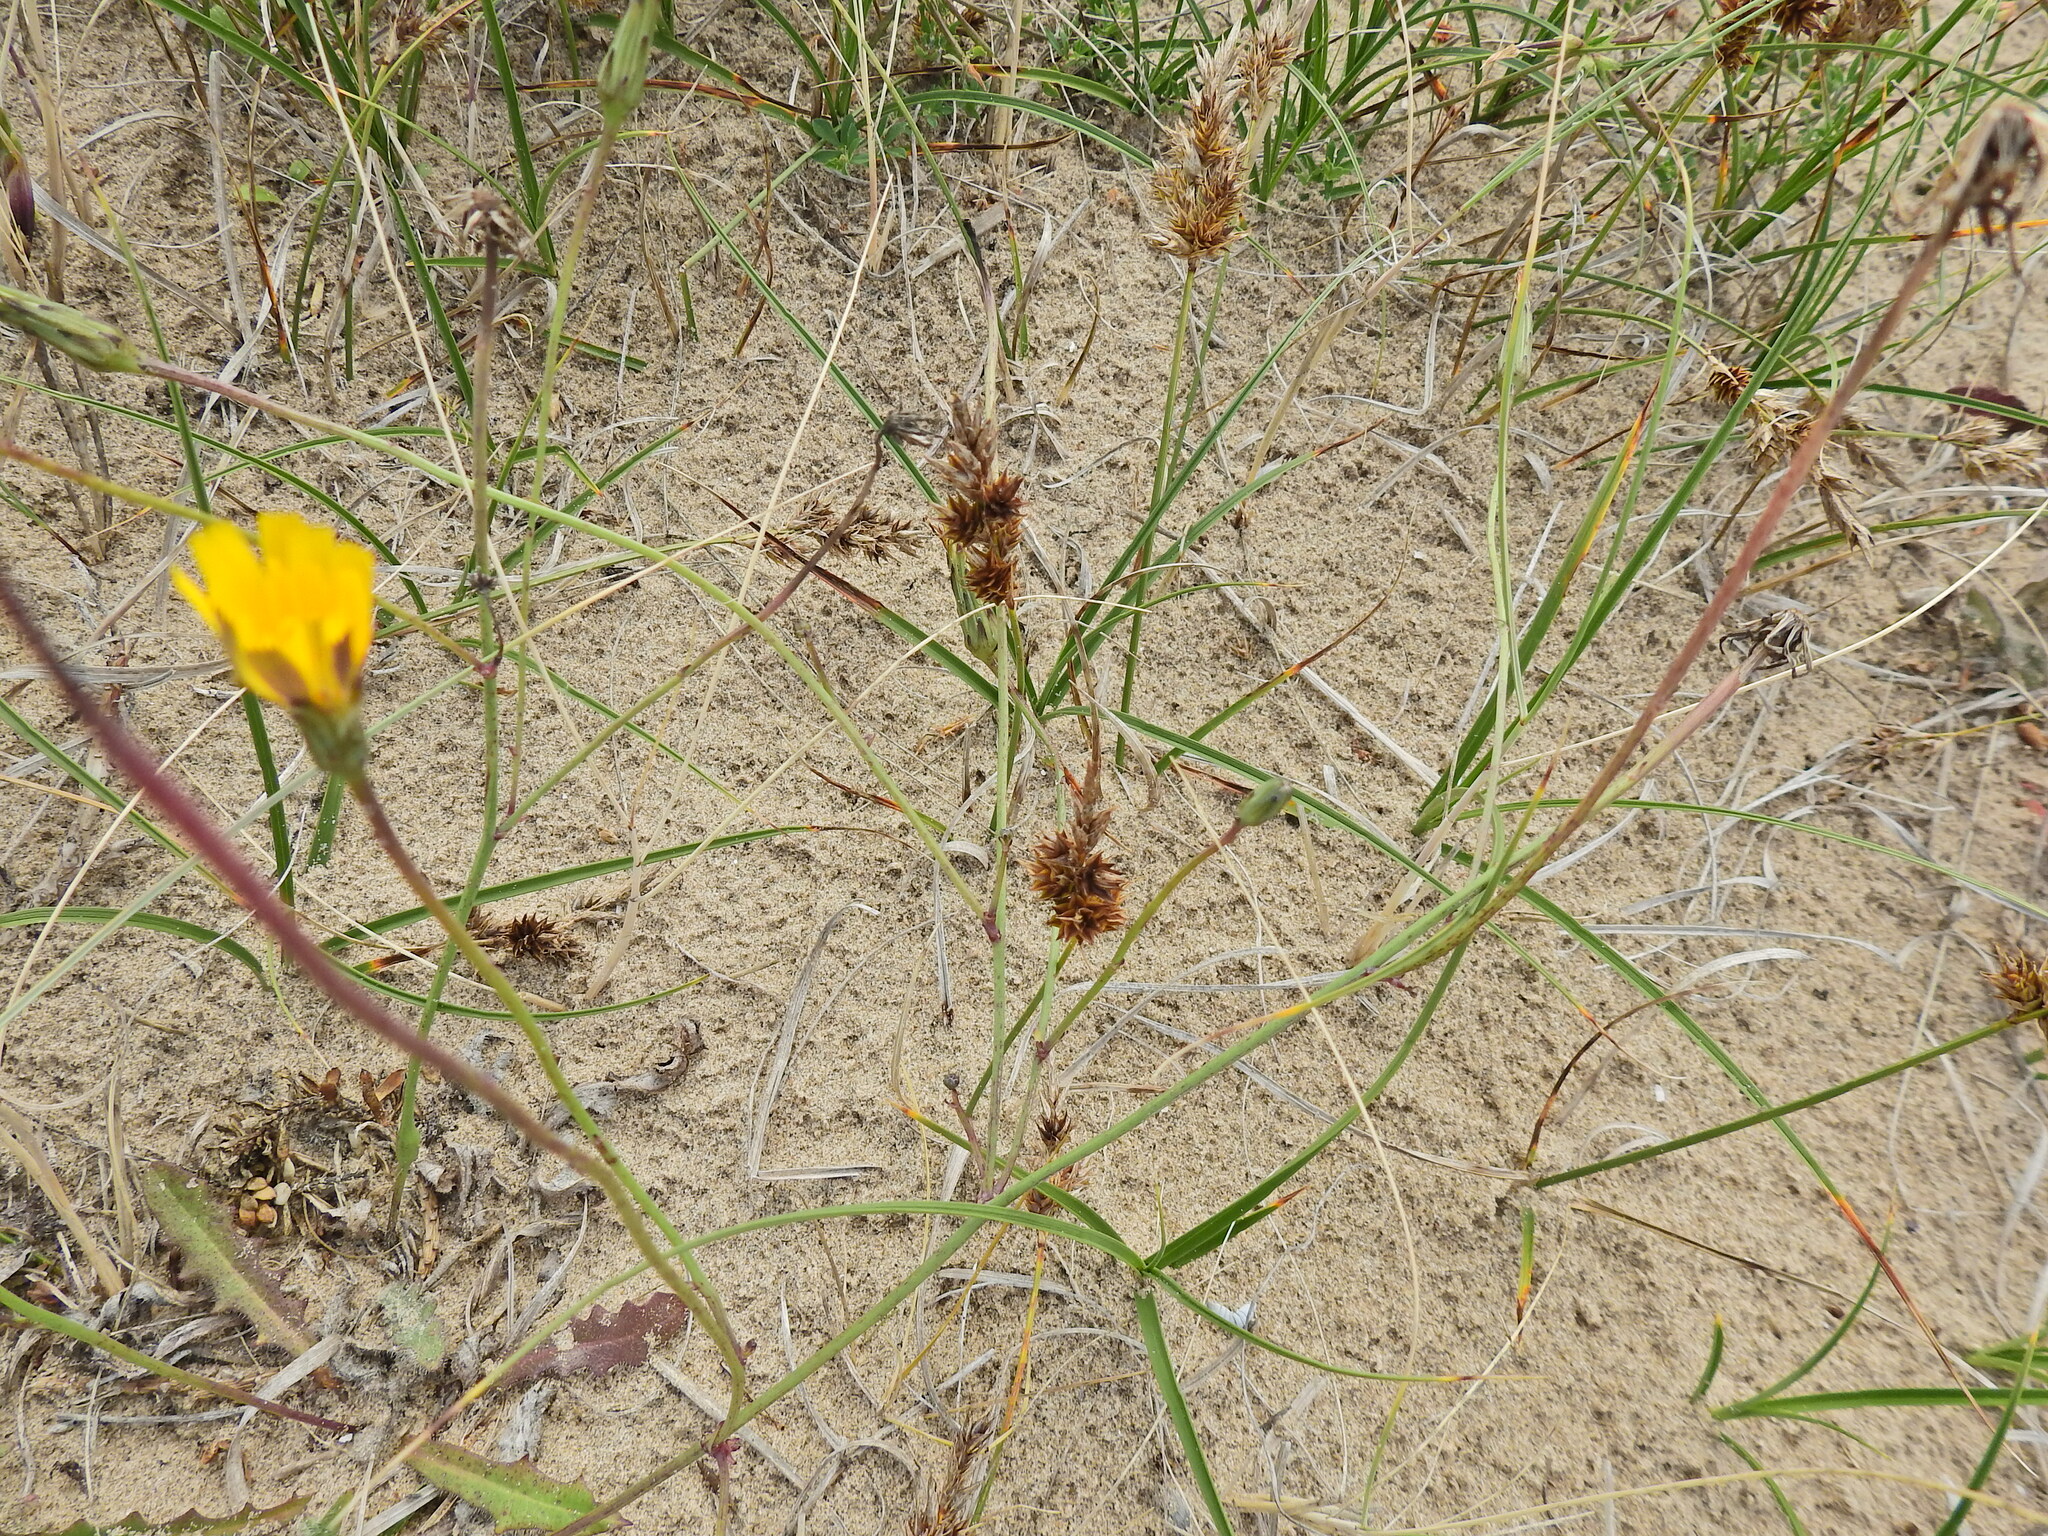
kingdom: Plantae
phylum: Tracheophyta
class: Liliopsida
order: Poales
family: Cyperaceae
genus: Carex
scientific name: Carex arenaria
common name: Sand sedge
